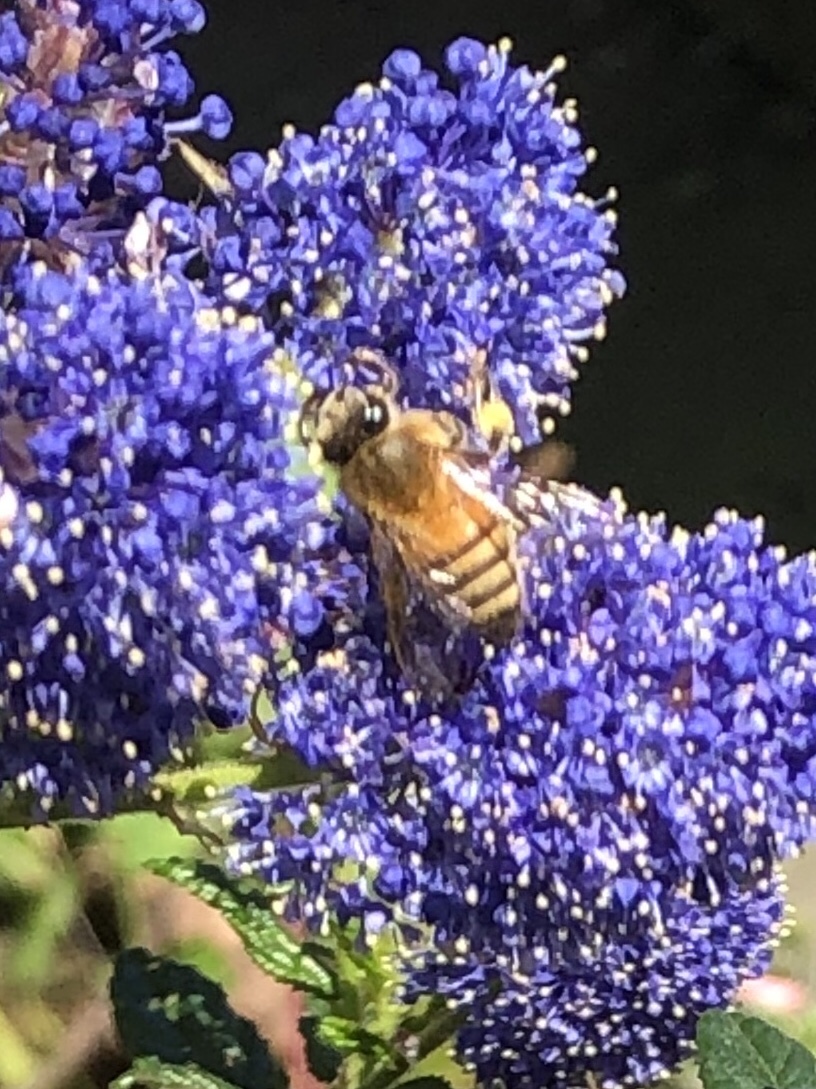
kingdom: Animalia
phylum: Arthropoda
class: Insecta
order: Hymenoptera
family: Apidae
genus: Apis
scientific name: Apis mellifera
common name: Honey bee
